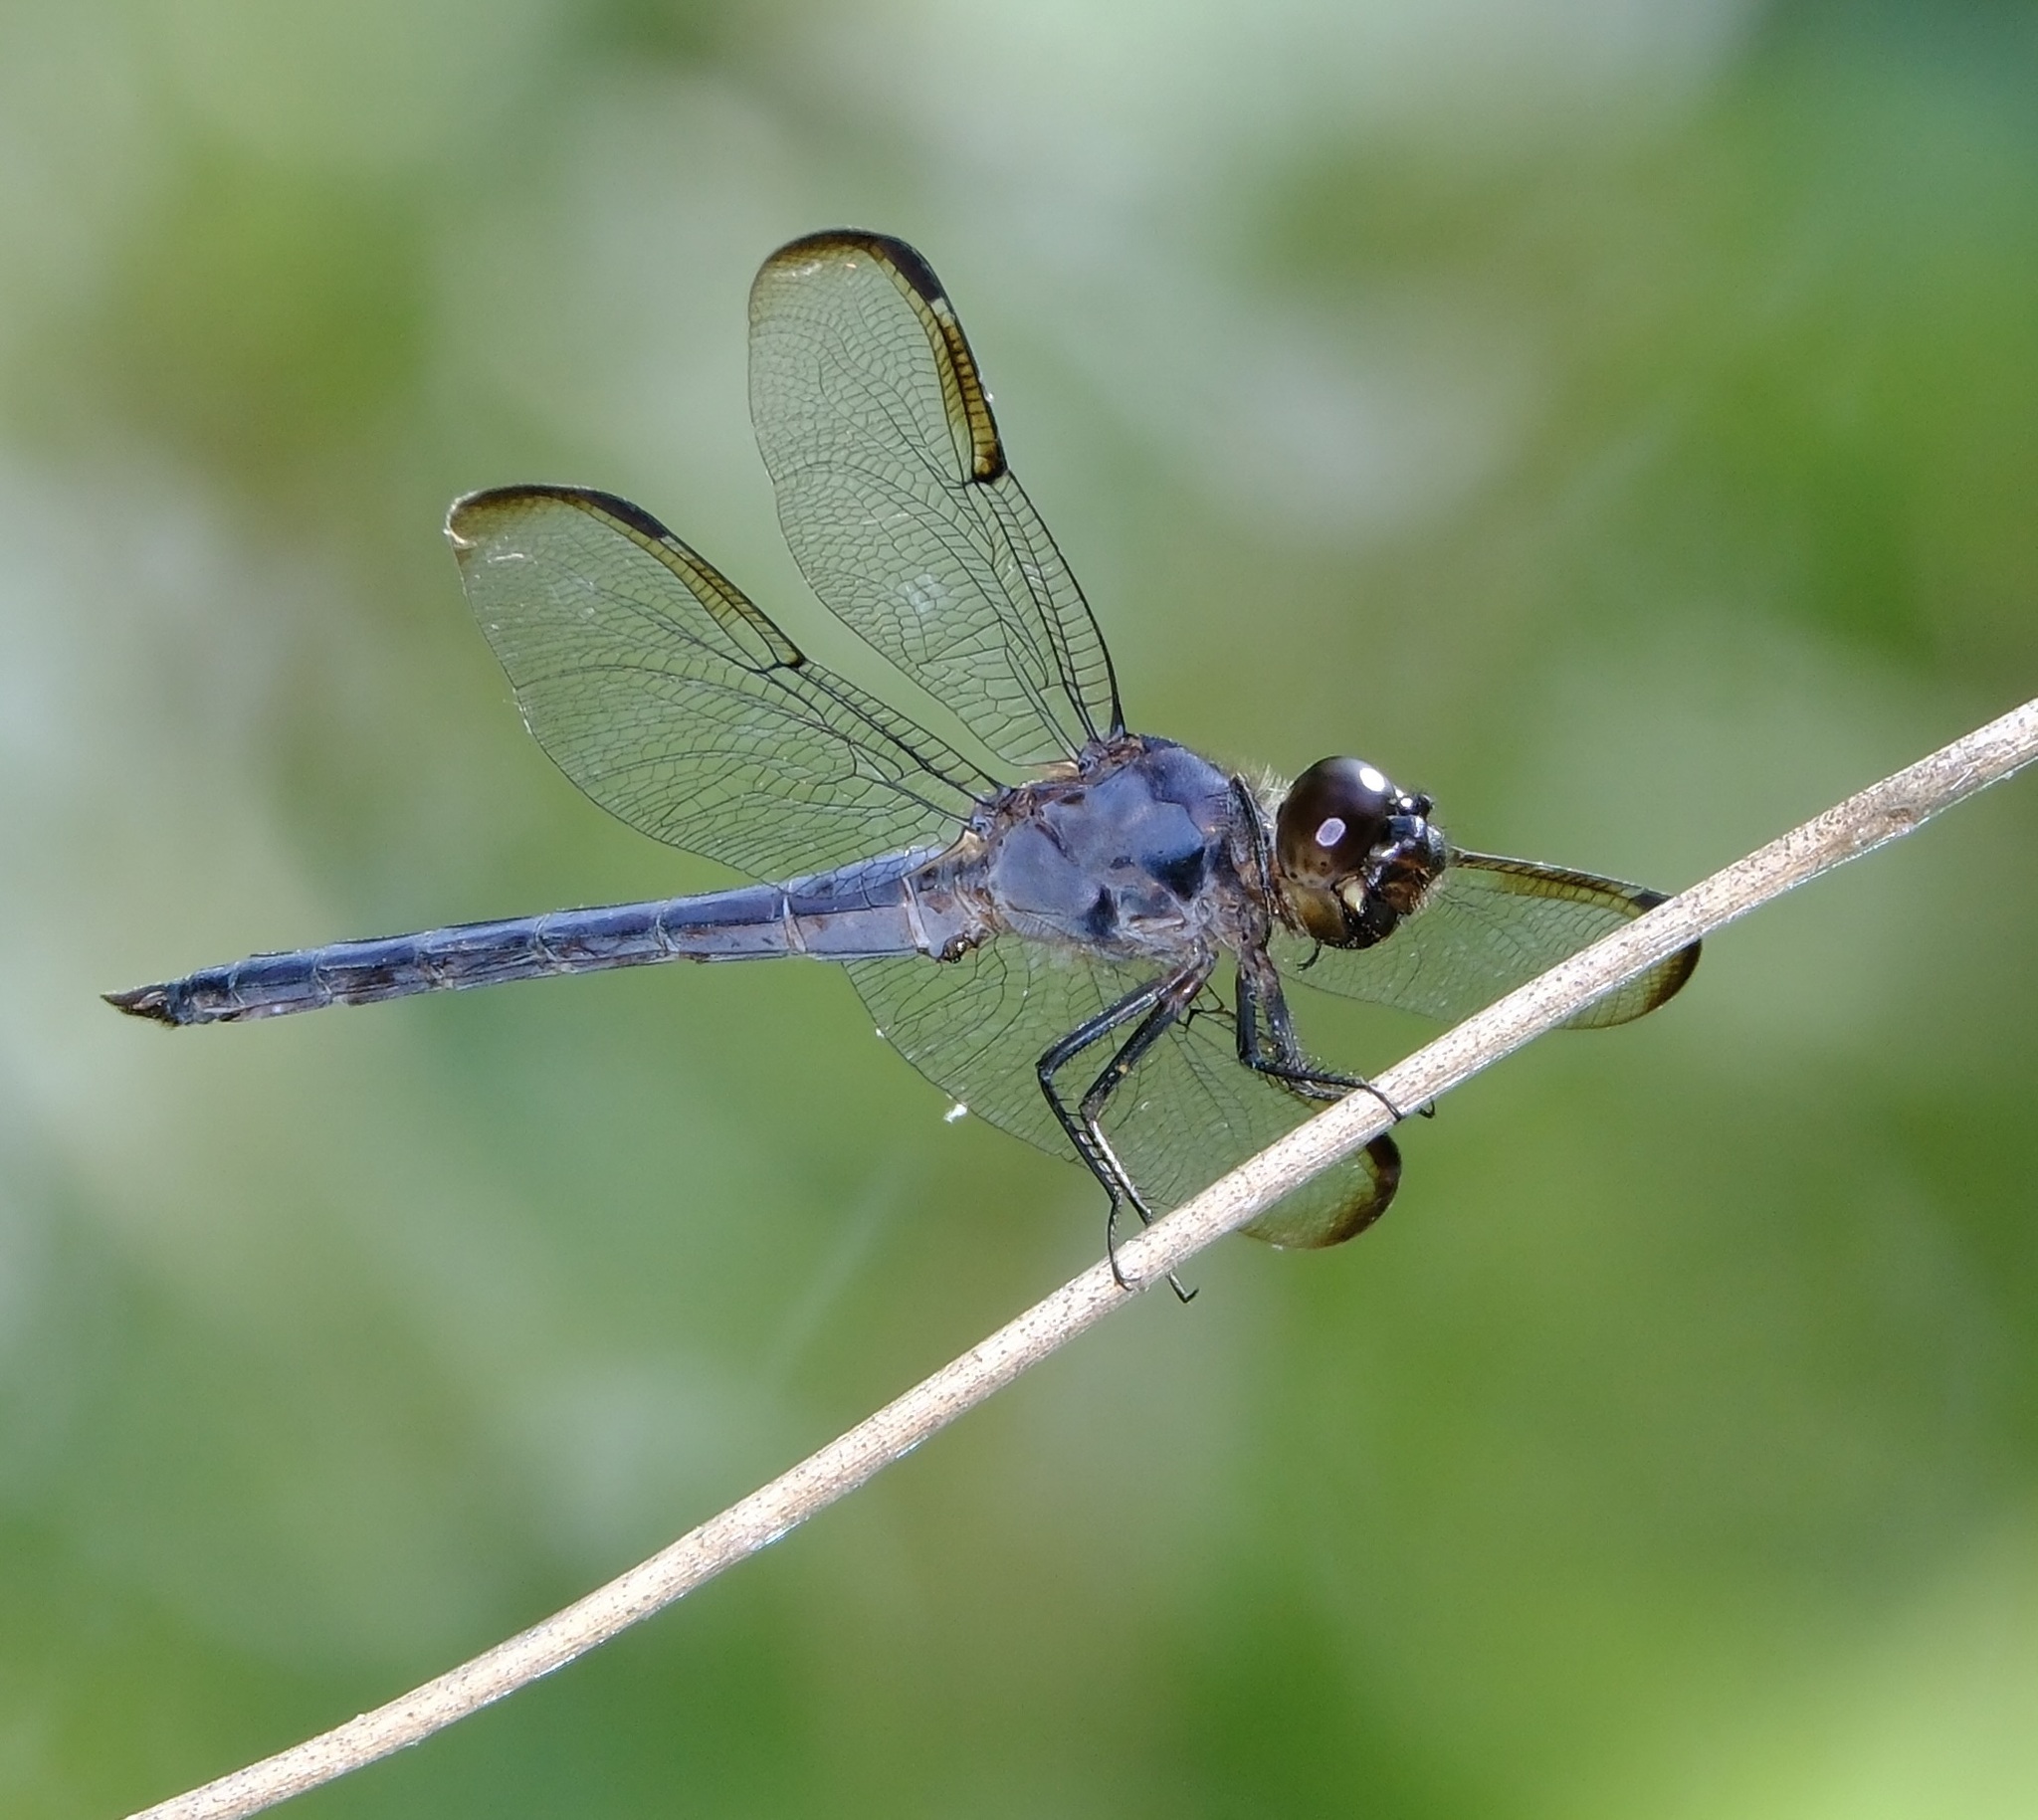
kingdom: Animalia
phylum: Arthropoda
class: Insecta
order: Odonata
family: Libellulidae
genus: Libellula
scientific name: Libellula incesta
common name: Slaty skimmer
